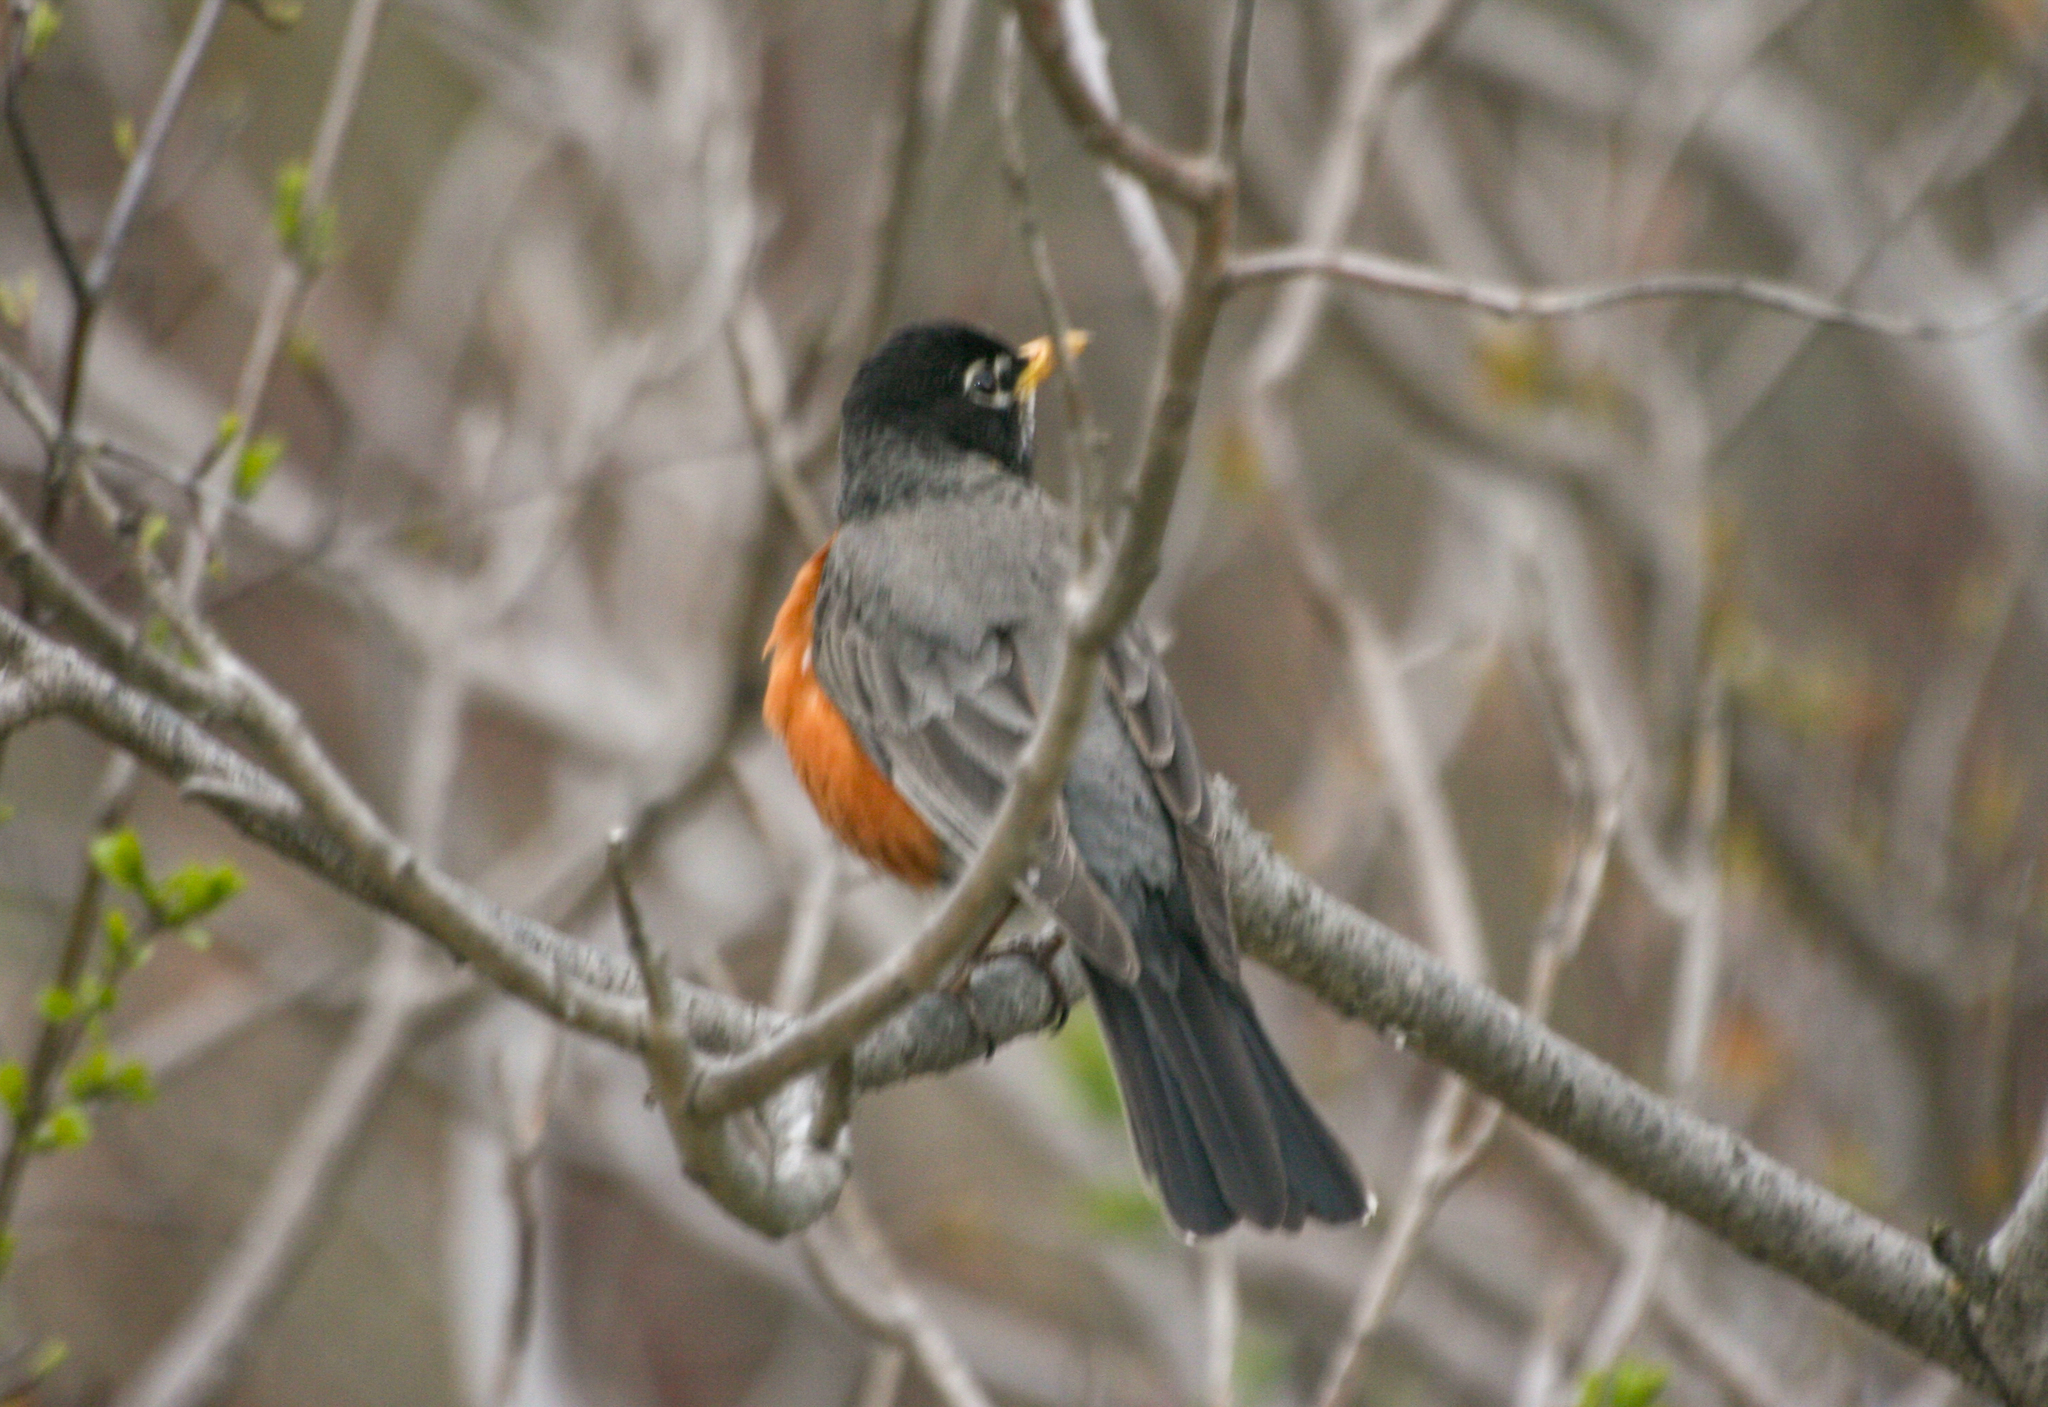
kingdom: Animalia
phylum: Chordata
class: Aves
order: Passeriformes
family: Turdidae
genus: Turdus
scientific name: Turdus migratorius
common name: American robin
